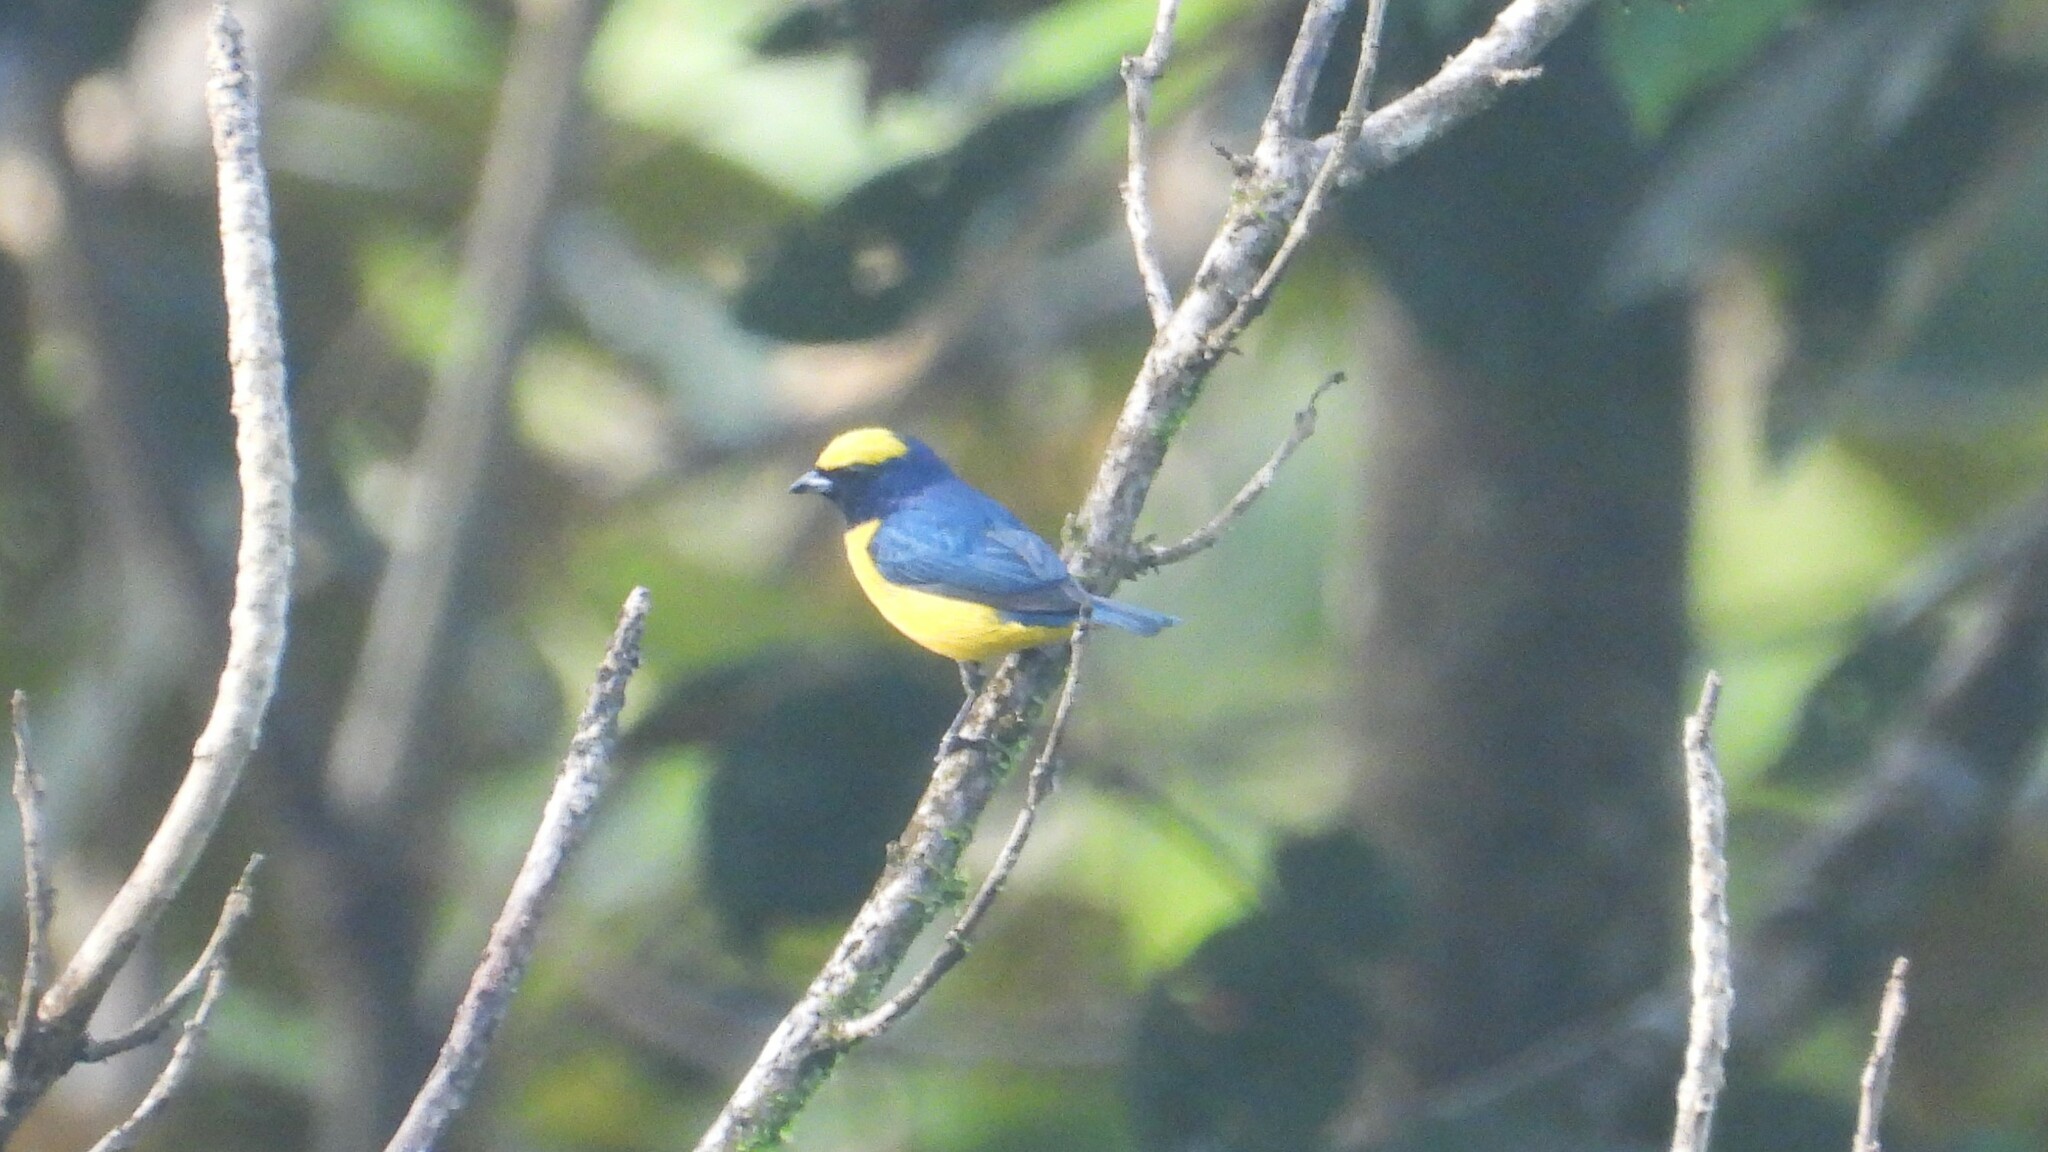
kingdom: Animalia
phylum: Chordata
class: Aves
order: Passeriformes
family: Fringillidae
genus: Euphonia
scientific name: Euphonia luteicapilla
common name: Yellow-crowned euphonia
